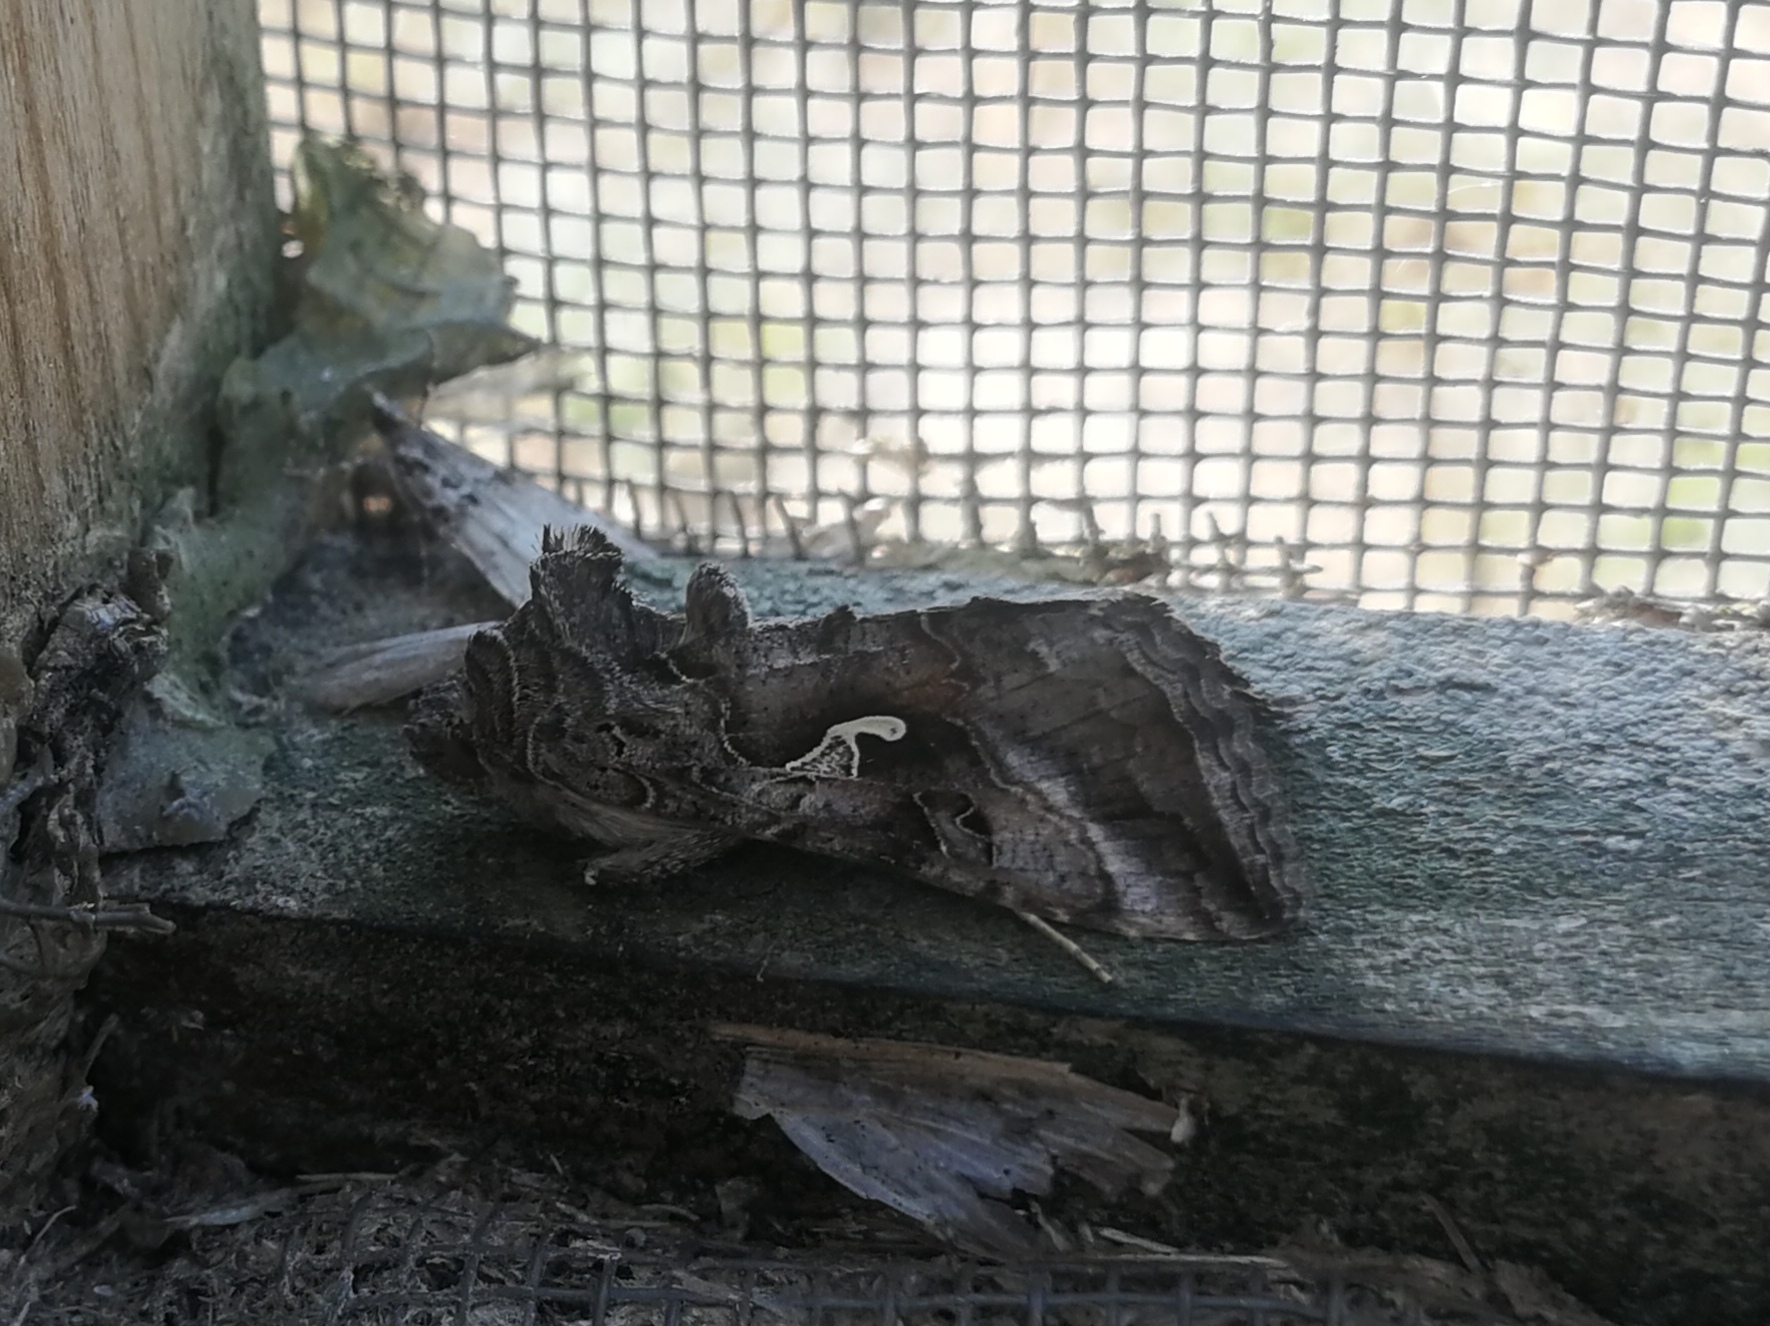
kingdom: Animalia
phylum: Arthropoda
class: Insecta
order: Lepidoptera
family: Noctuidae
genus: Autographa
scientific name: Autographa gamma
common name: Silver y
